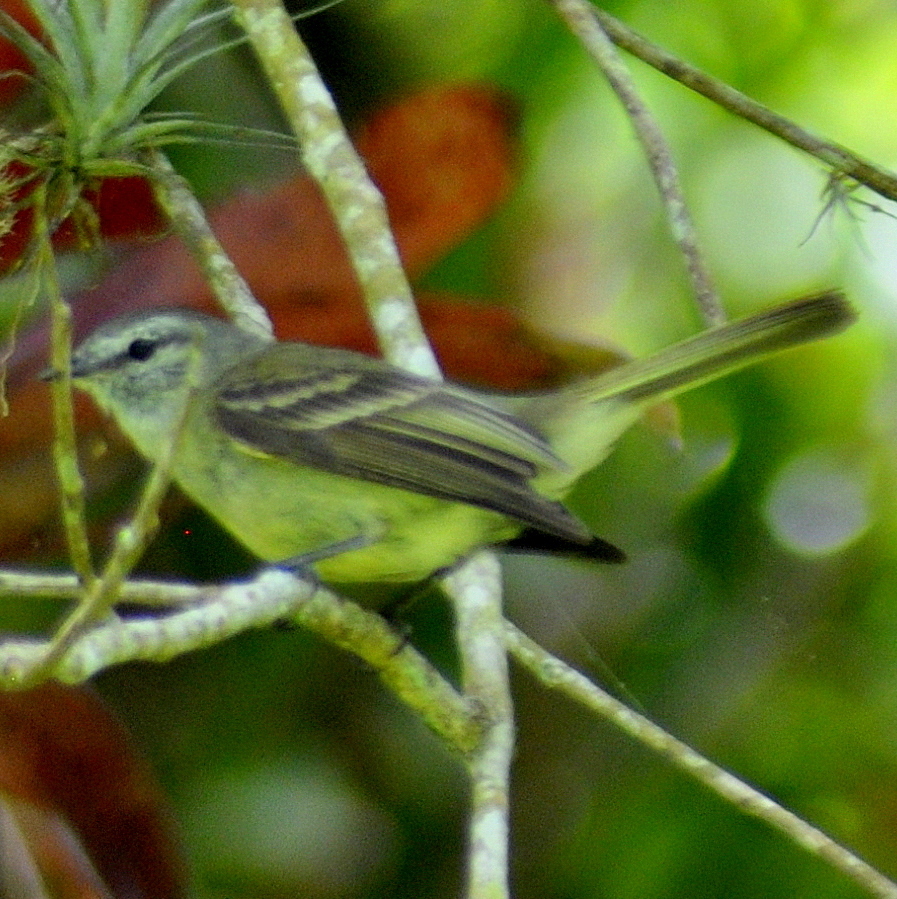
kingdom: Animalia
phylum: Chordata
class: Aves
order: Passeriformes
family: Tyrannidae
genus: Phyllomyias
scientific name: Phyllomyias fasciatus
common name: Planalto tyrannulet
